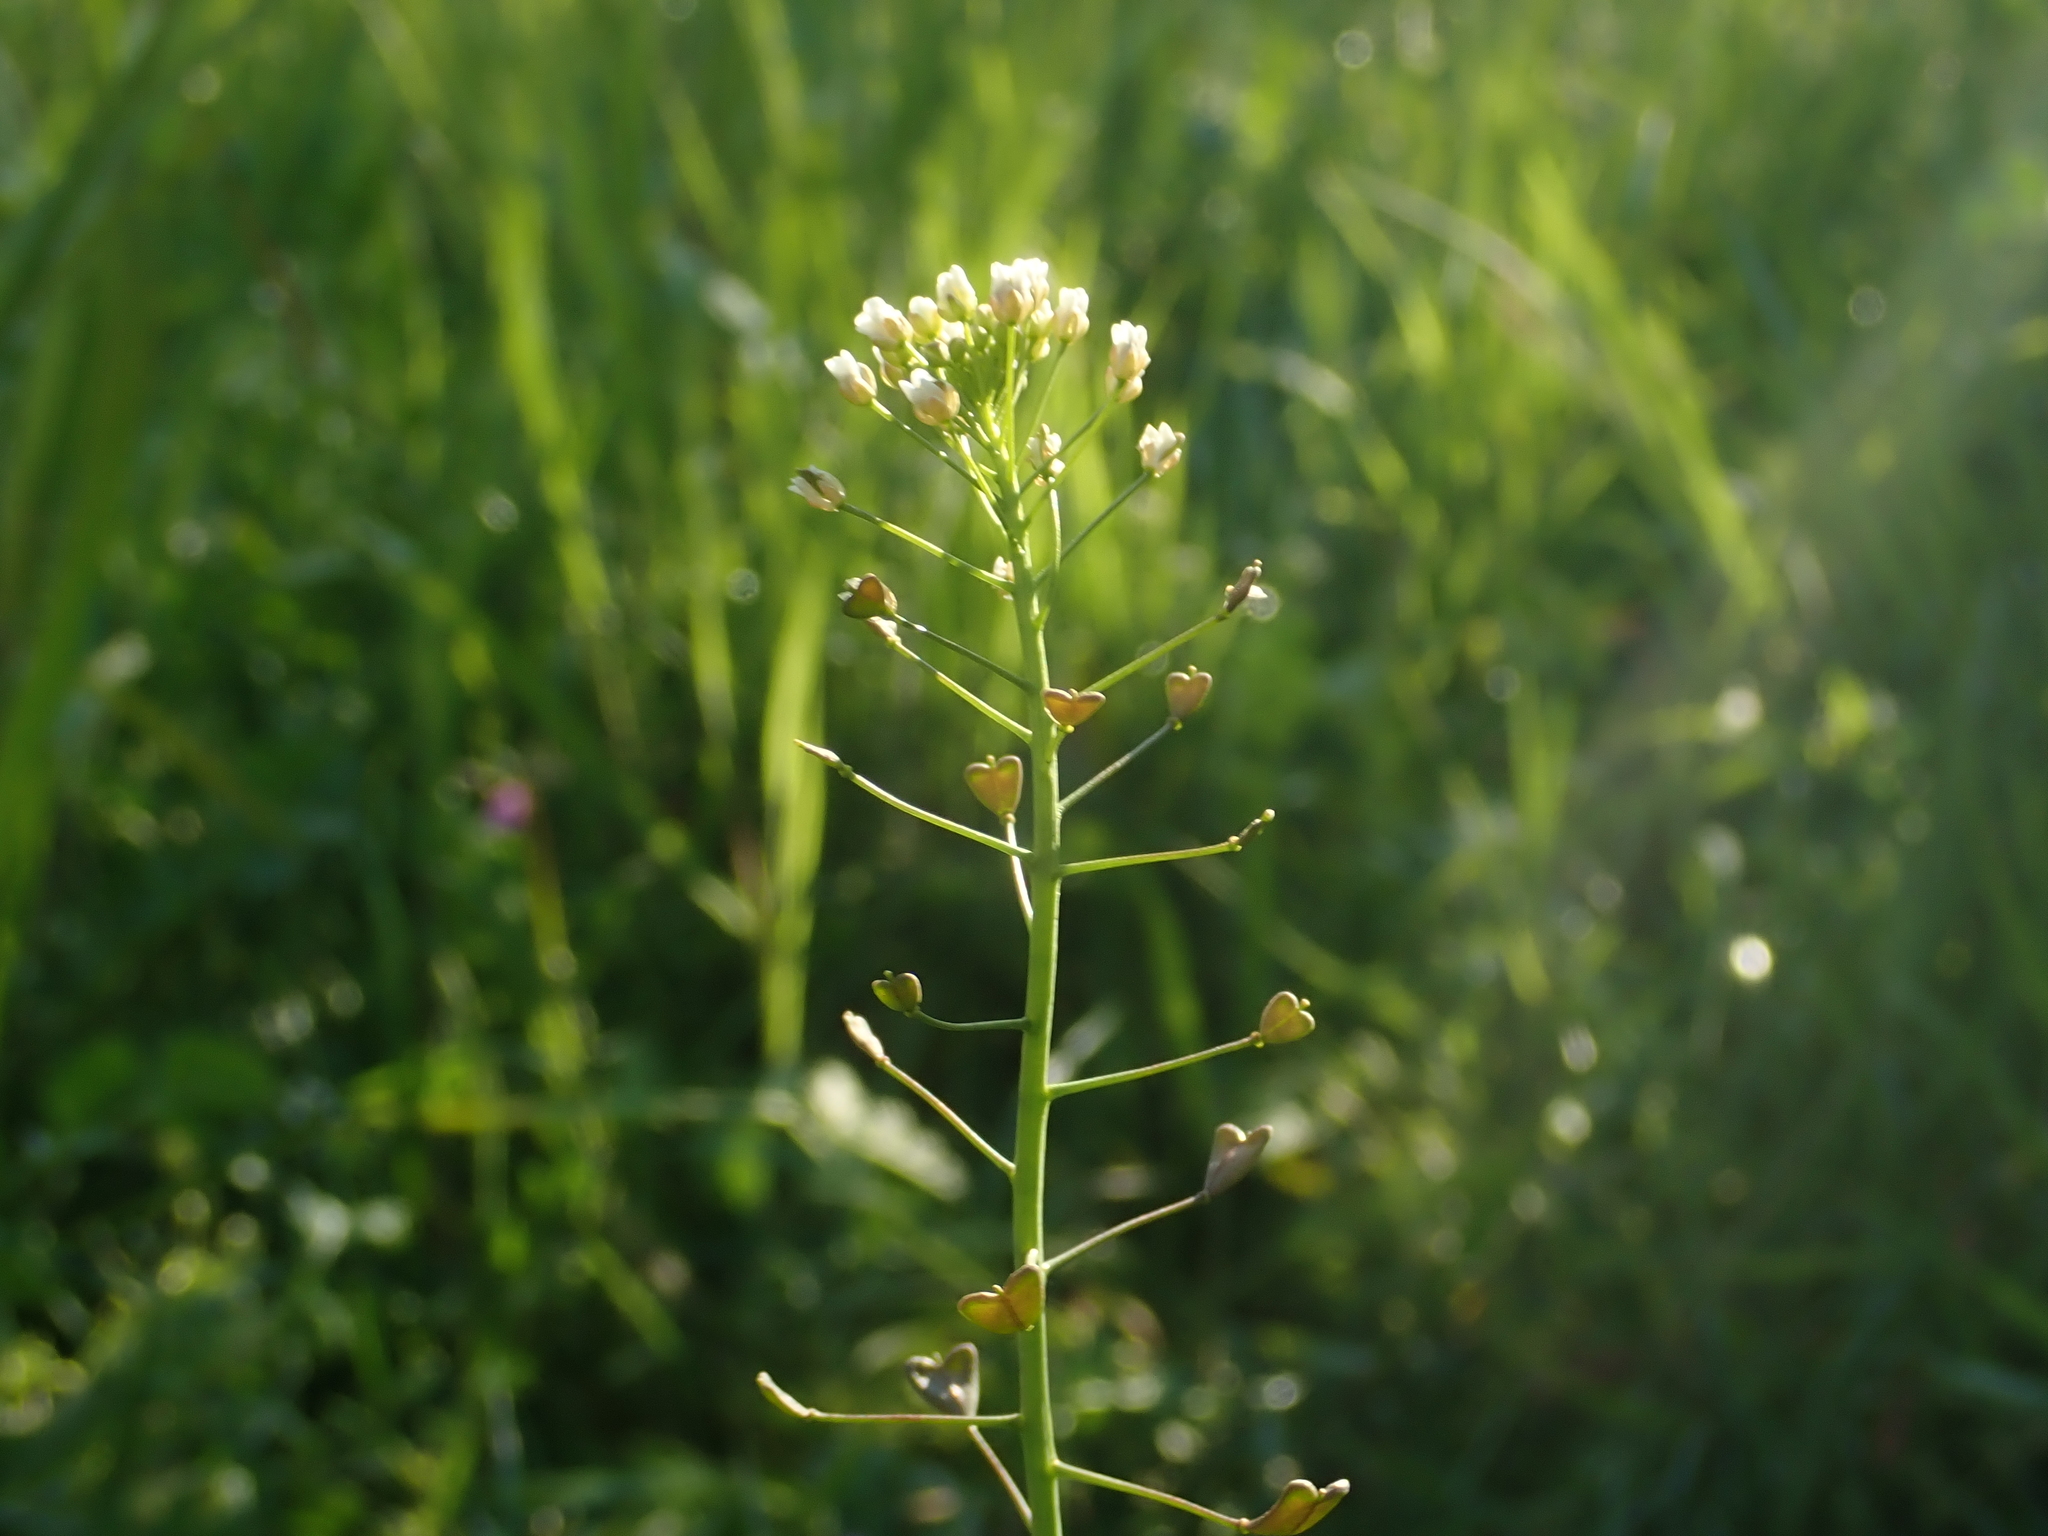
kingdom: Plantae
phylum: Tracheophyta
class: Magnoliopsida
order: Brassicales
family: Brassicaceae
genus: Capsella
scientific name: Capsella bursa-pastoris
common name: Shepherd's purse
